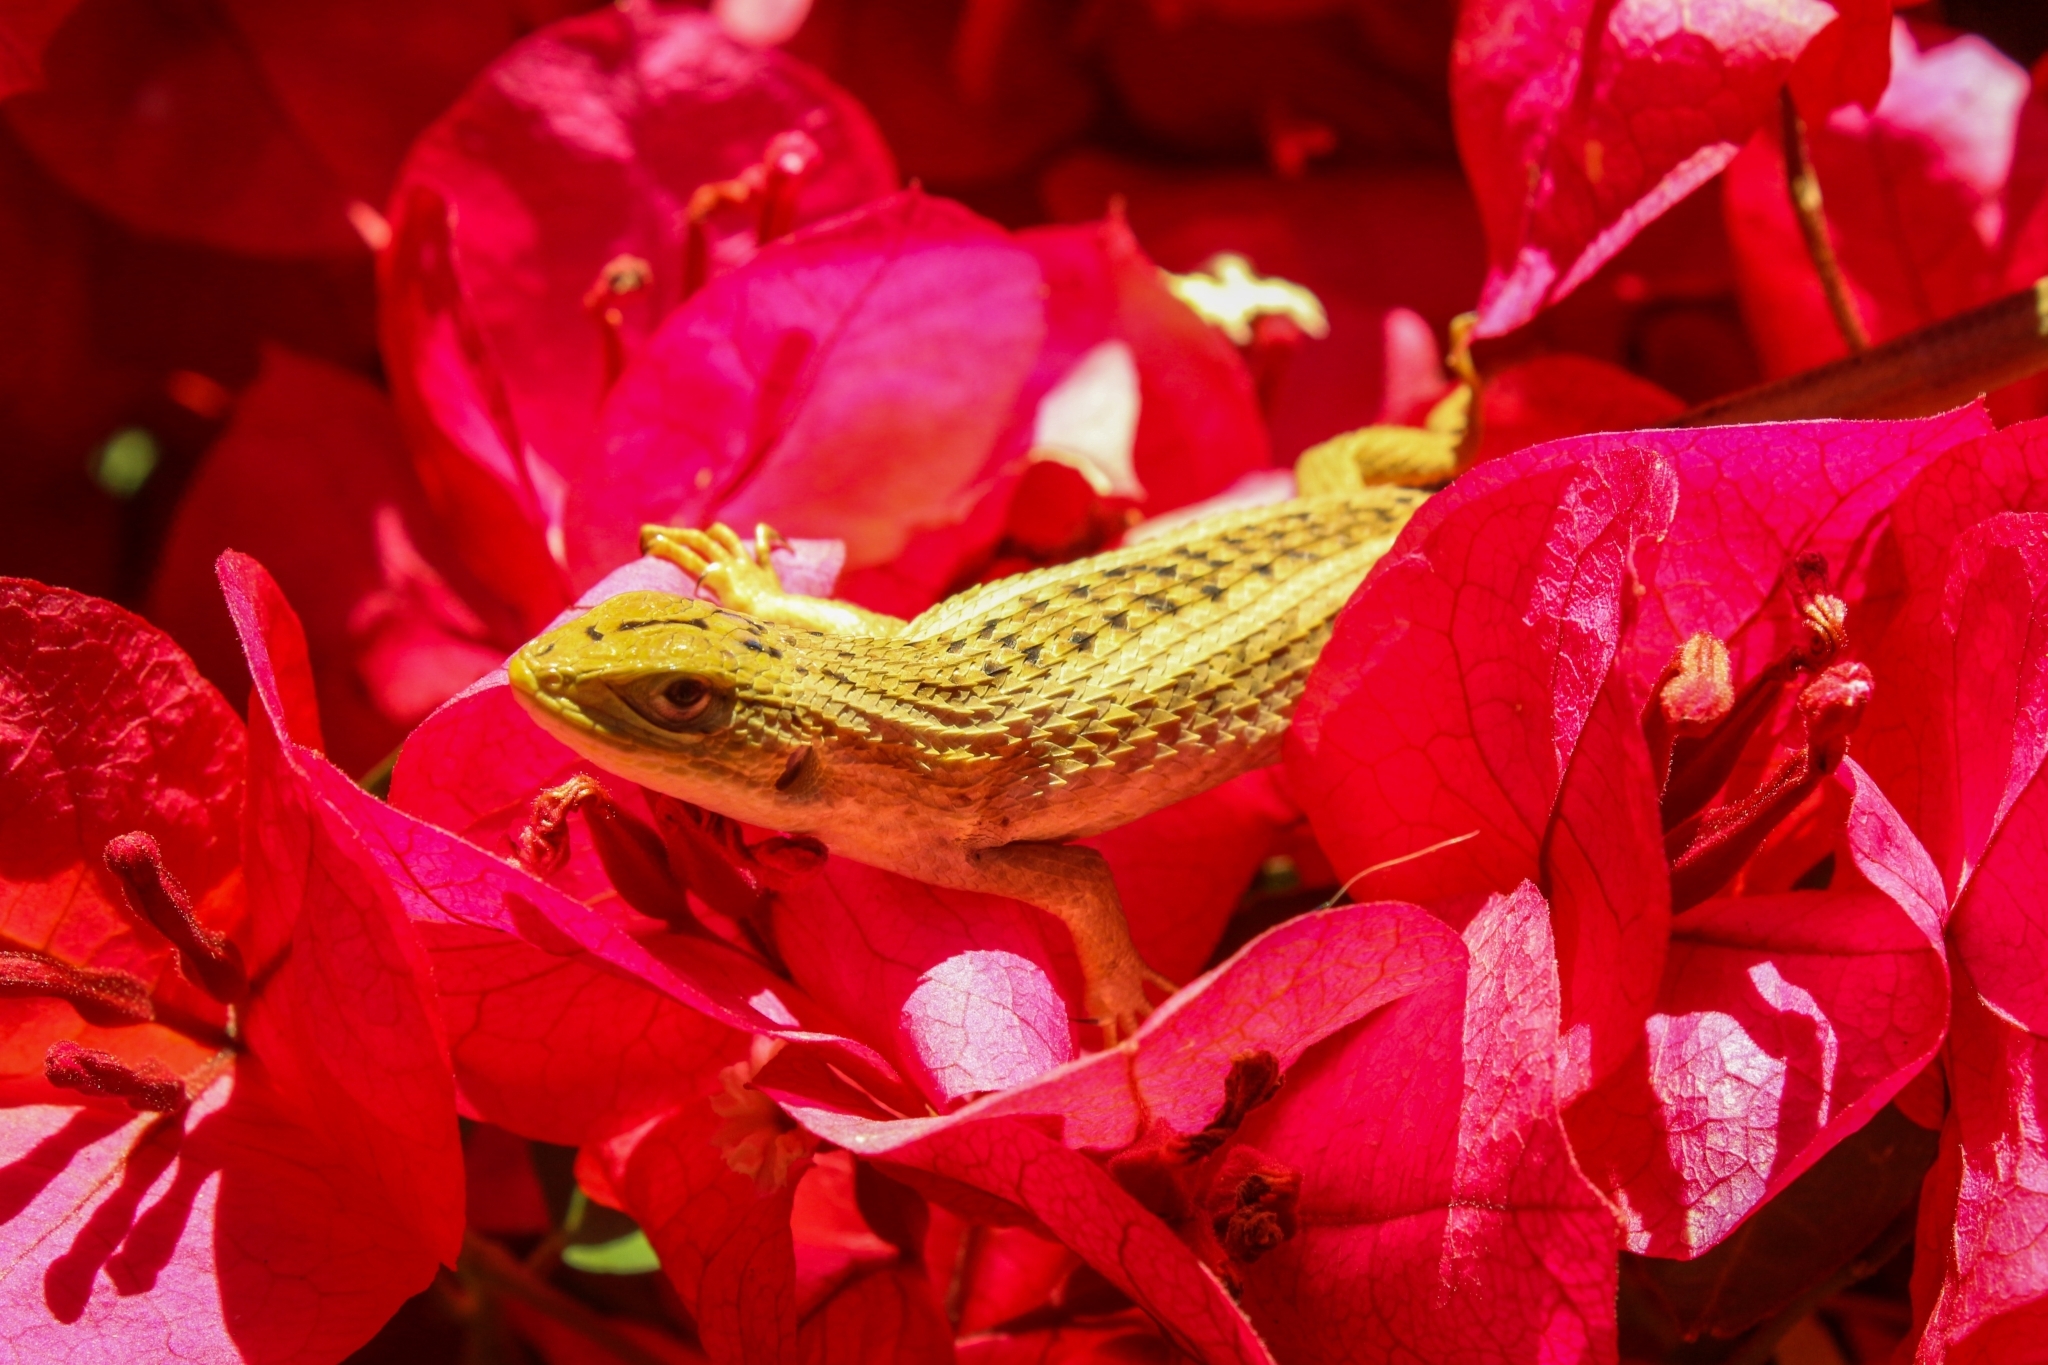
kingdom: Animalia
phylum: Chordata
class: Squamata
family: Liolaemidae
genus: Liolaemus
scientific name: Liolaemus chiliensis
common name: Chilean tree iguana
